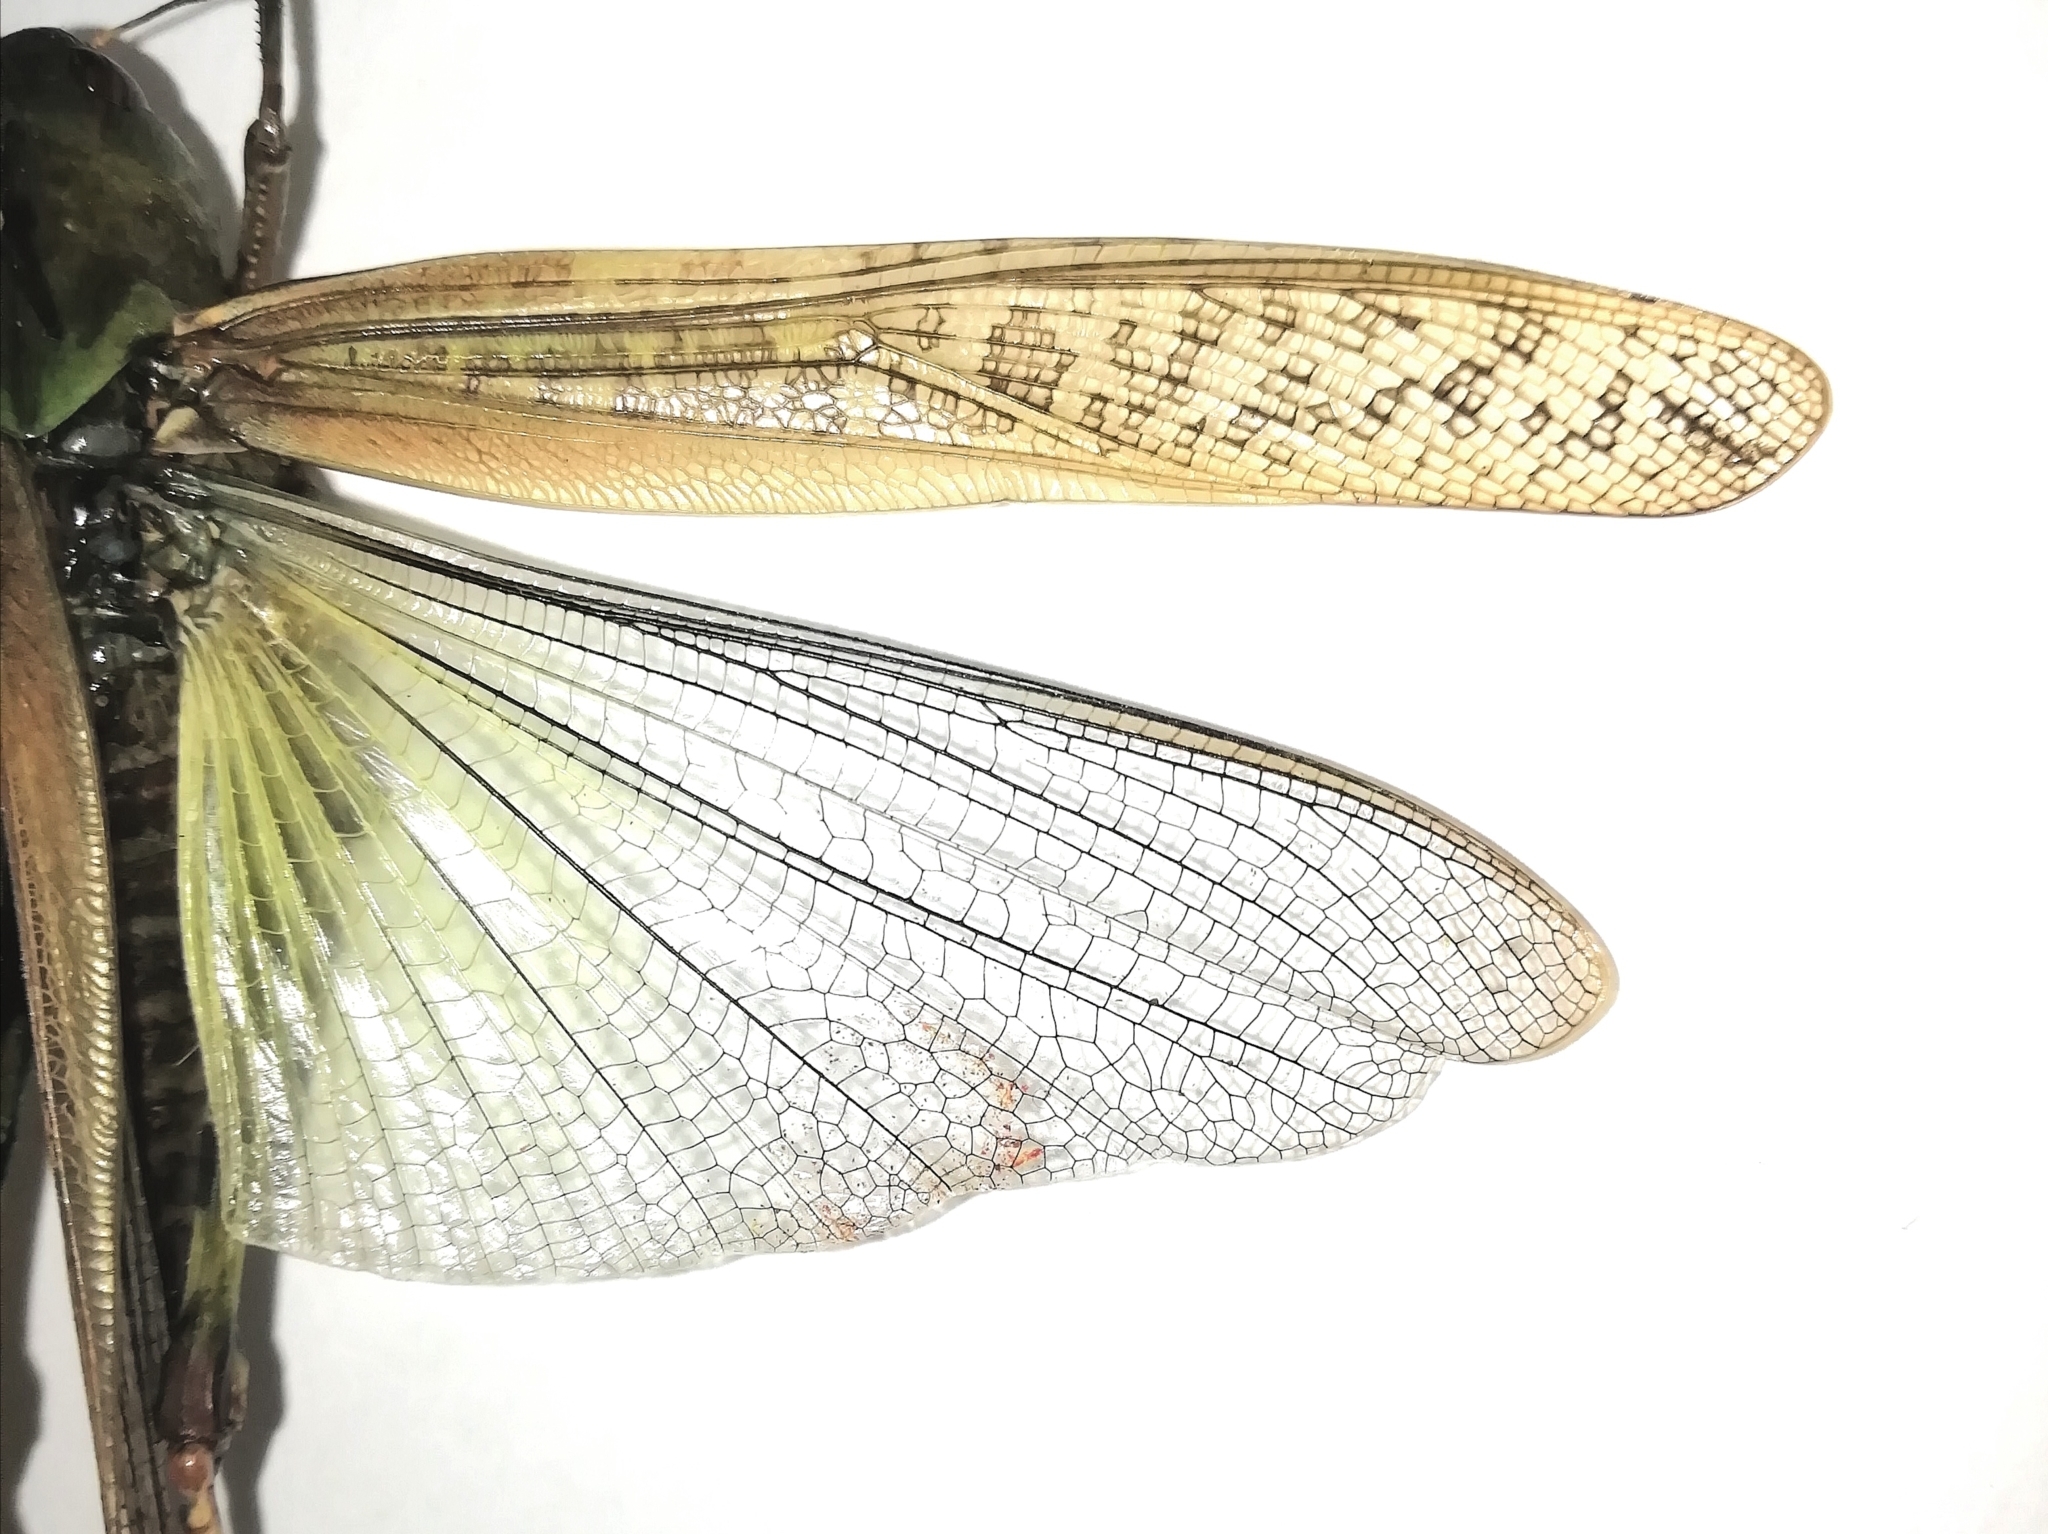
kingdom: Animalia
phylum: Arthropoda
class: Insecta
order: Orthoptera
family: Acrididae
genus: Locusta
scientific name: Locusta migratoria
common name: Migratory locust
